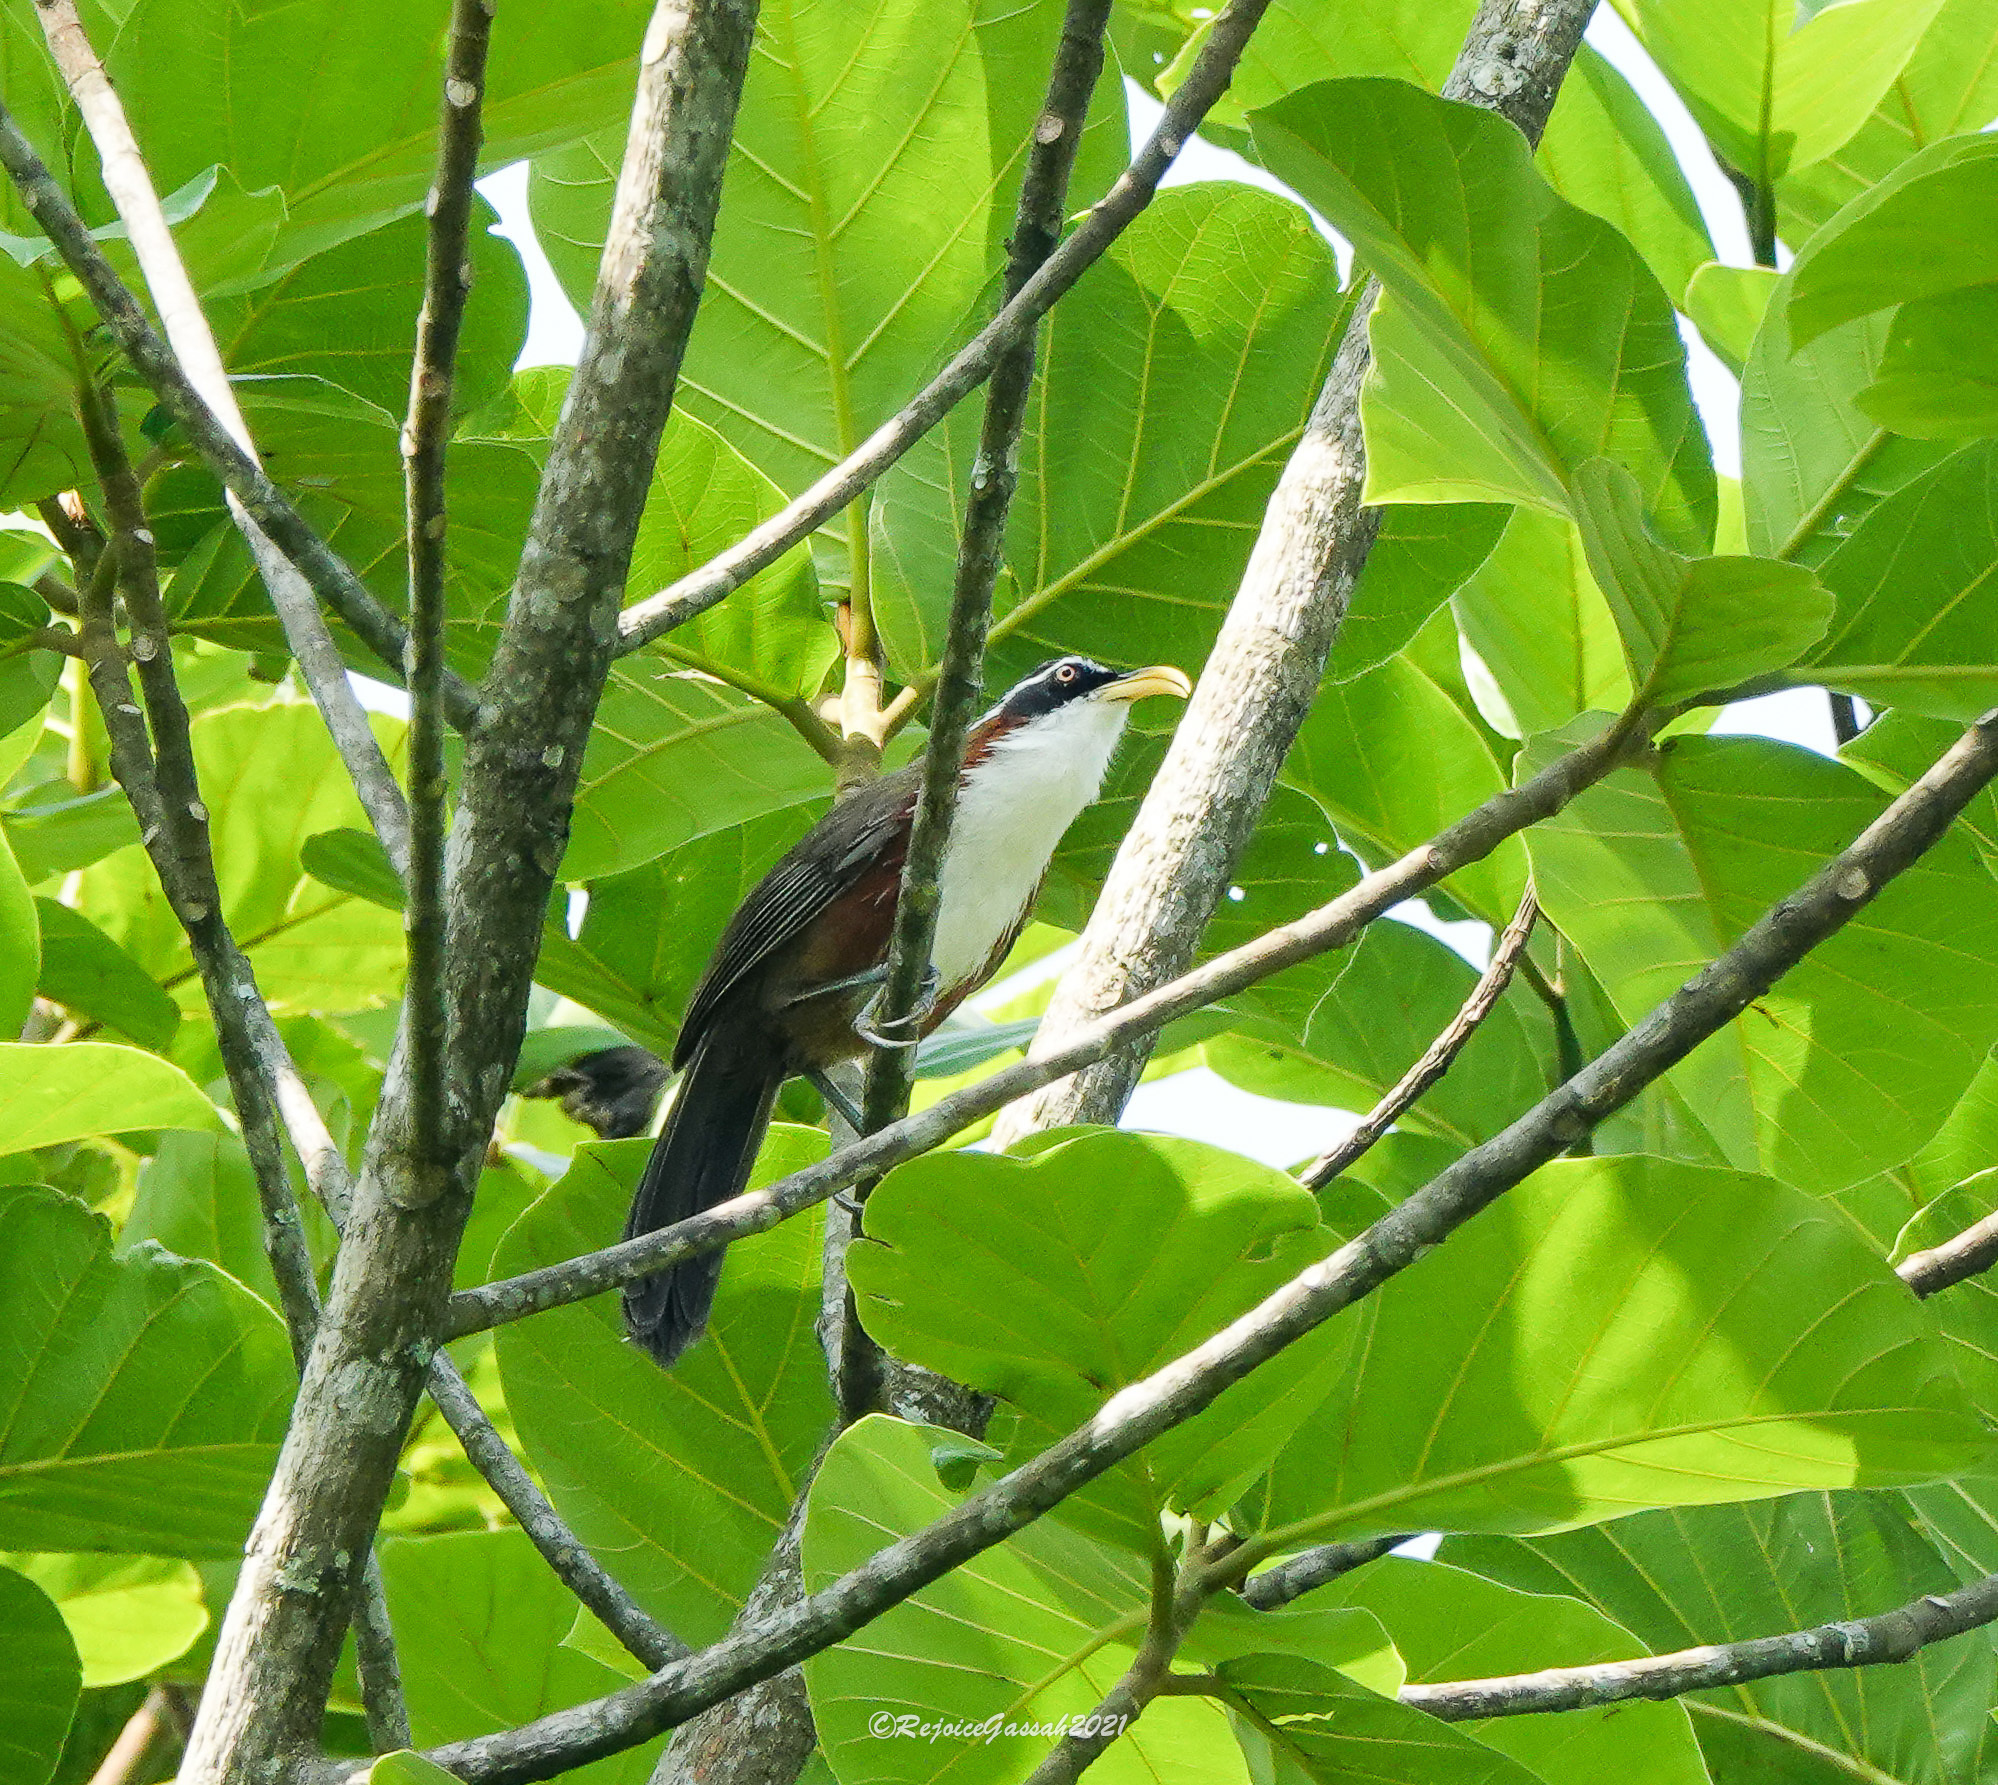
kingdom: Animalia
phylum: Chordata
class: Aves
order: Passeriformes
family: Timaliidae
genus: Pomatorhinus
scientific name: Pomatorhinus schisticeps
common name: White-browed scimitar babbler
